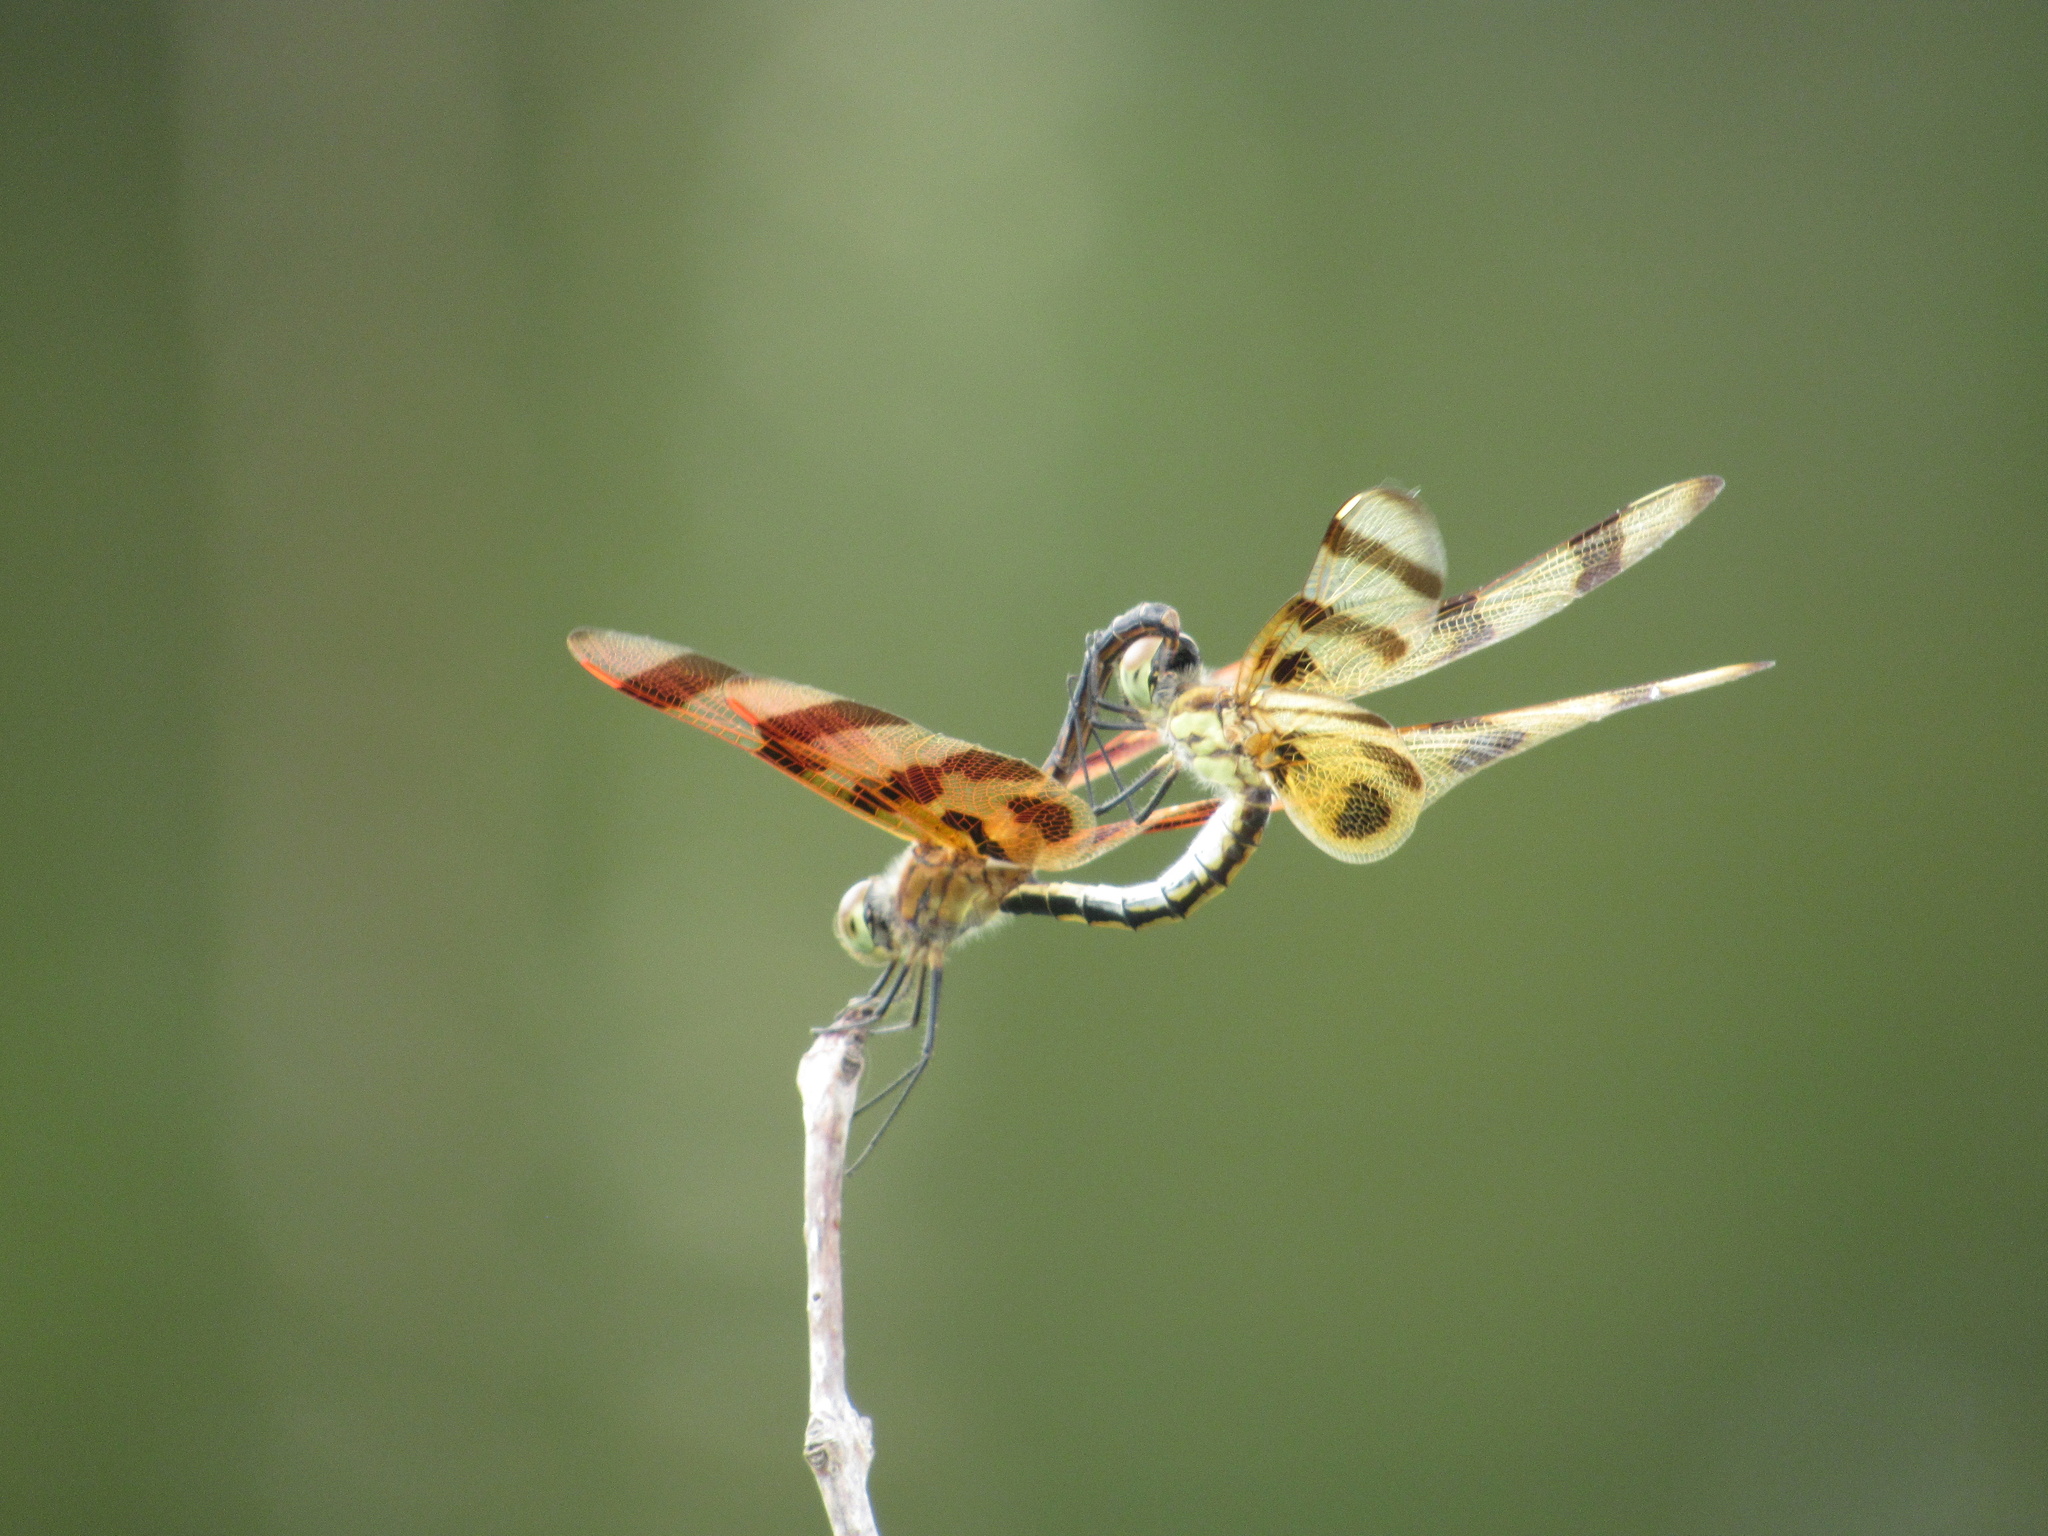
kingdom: Animalia
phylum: Arthropoda
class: Insecta
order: Odonata
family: Libellulidae
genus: Celithemis
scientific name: Celithemis eponina
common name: Halloween pennant
